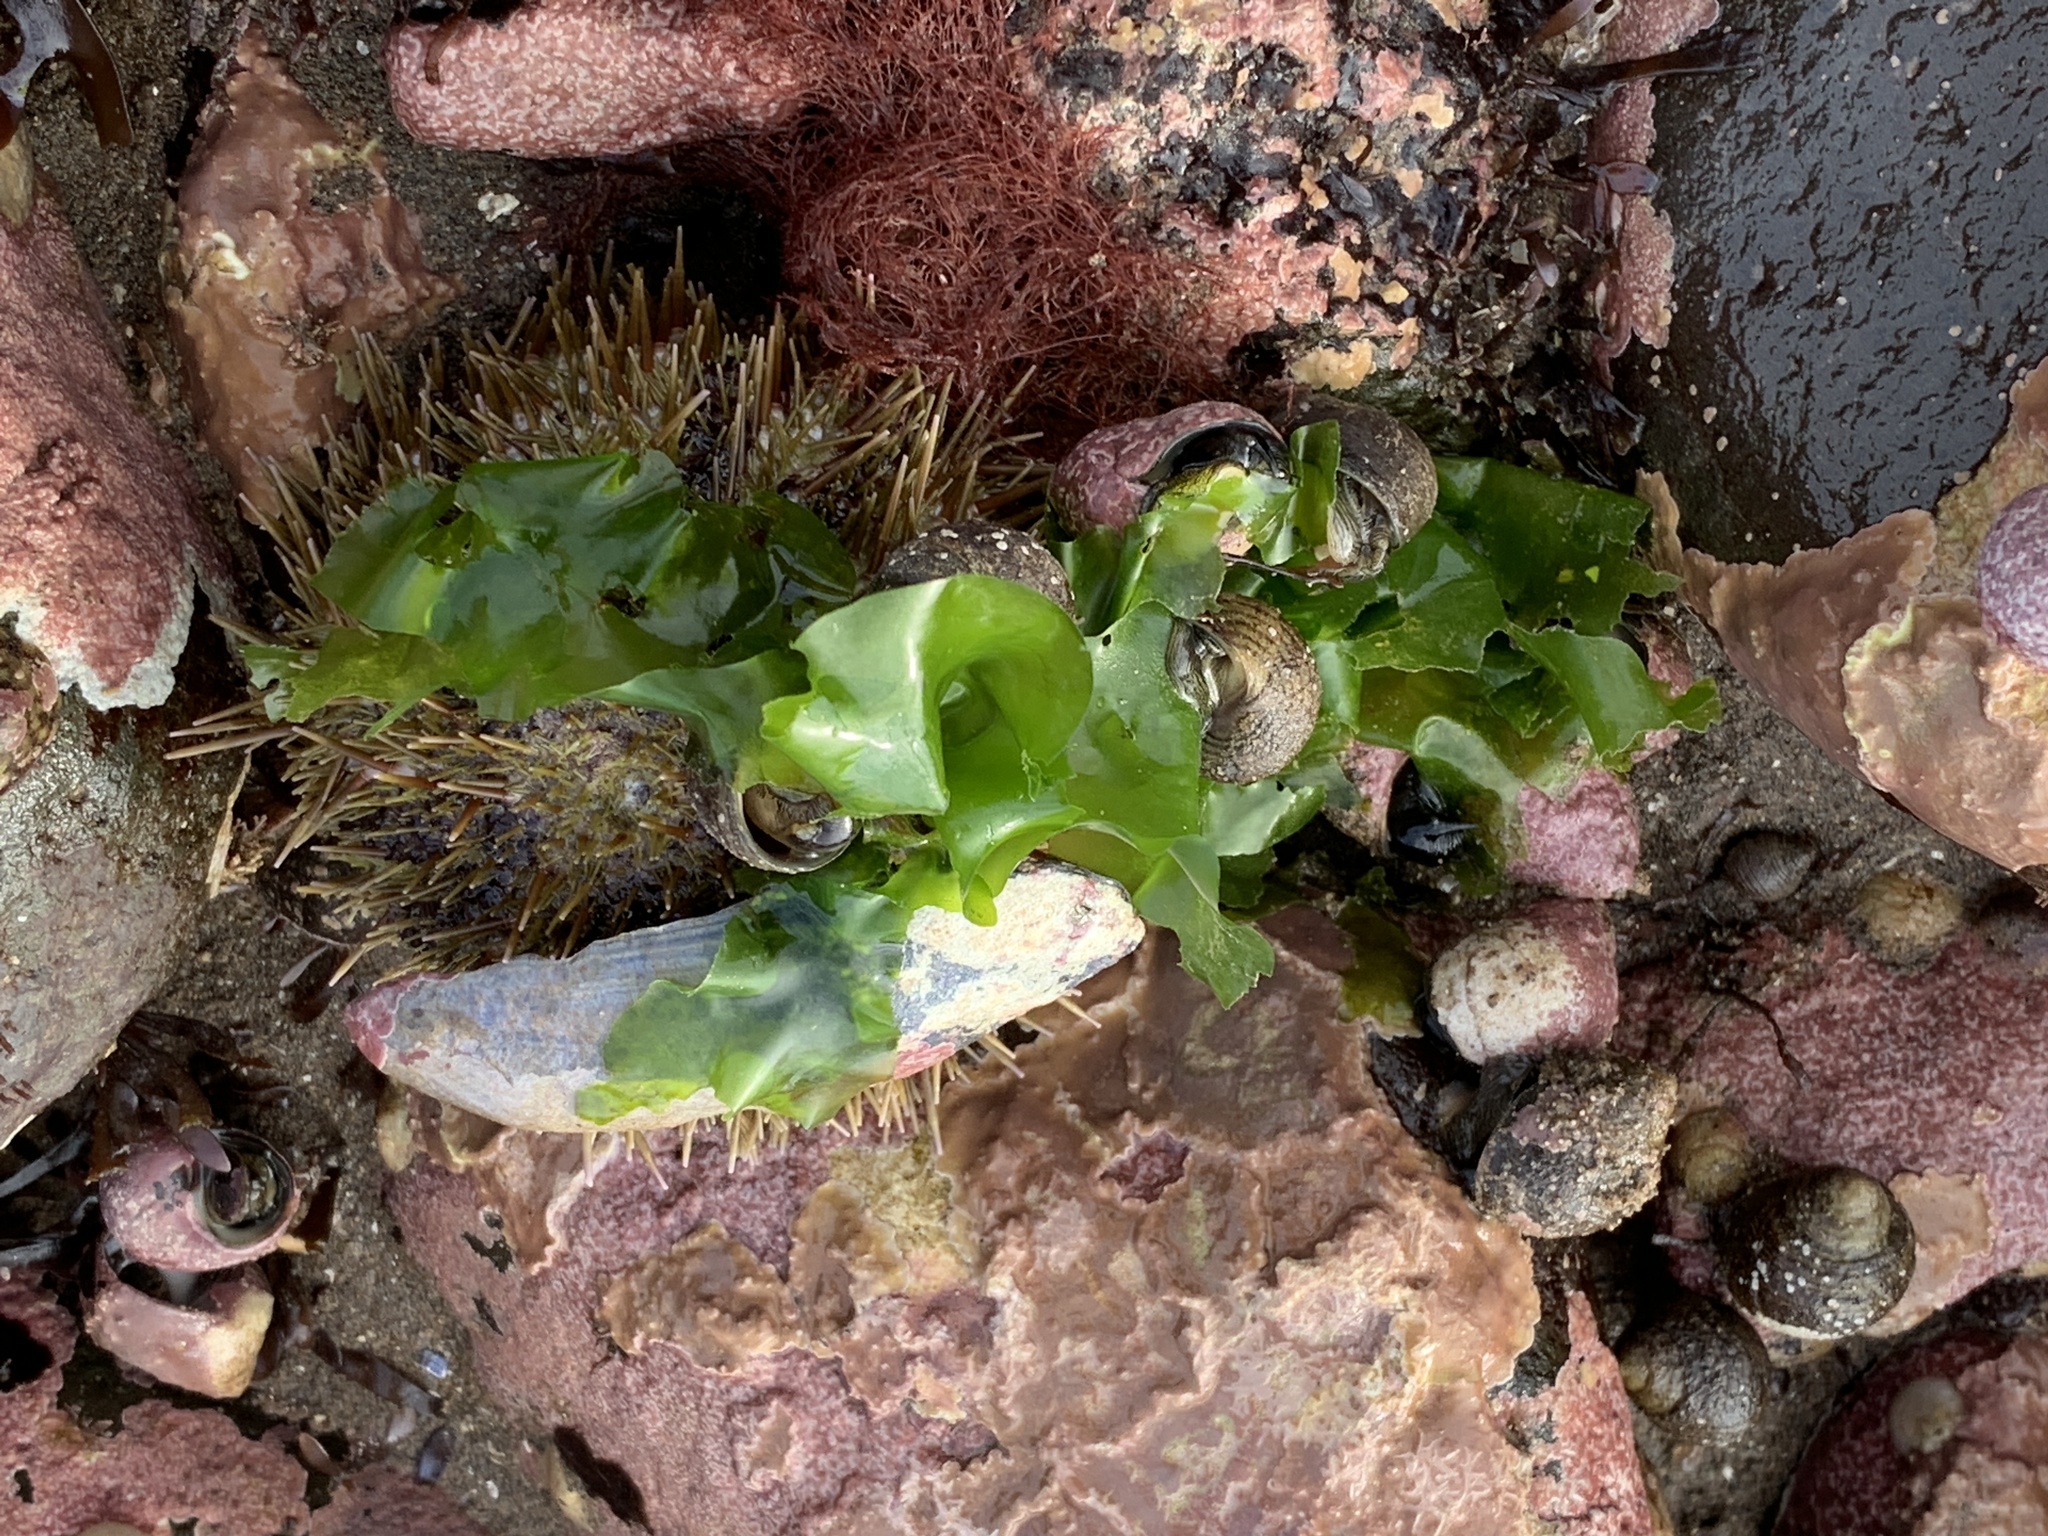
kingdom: Plantae
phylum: Chlorophyta
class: Ulvophyceae
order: Ulvales
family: Ulvaceae
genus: Ulva
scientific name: Ulva lactuca
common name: Sea lettuce
